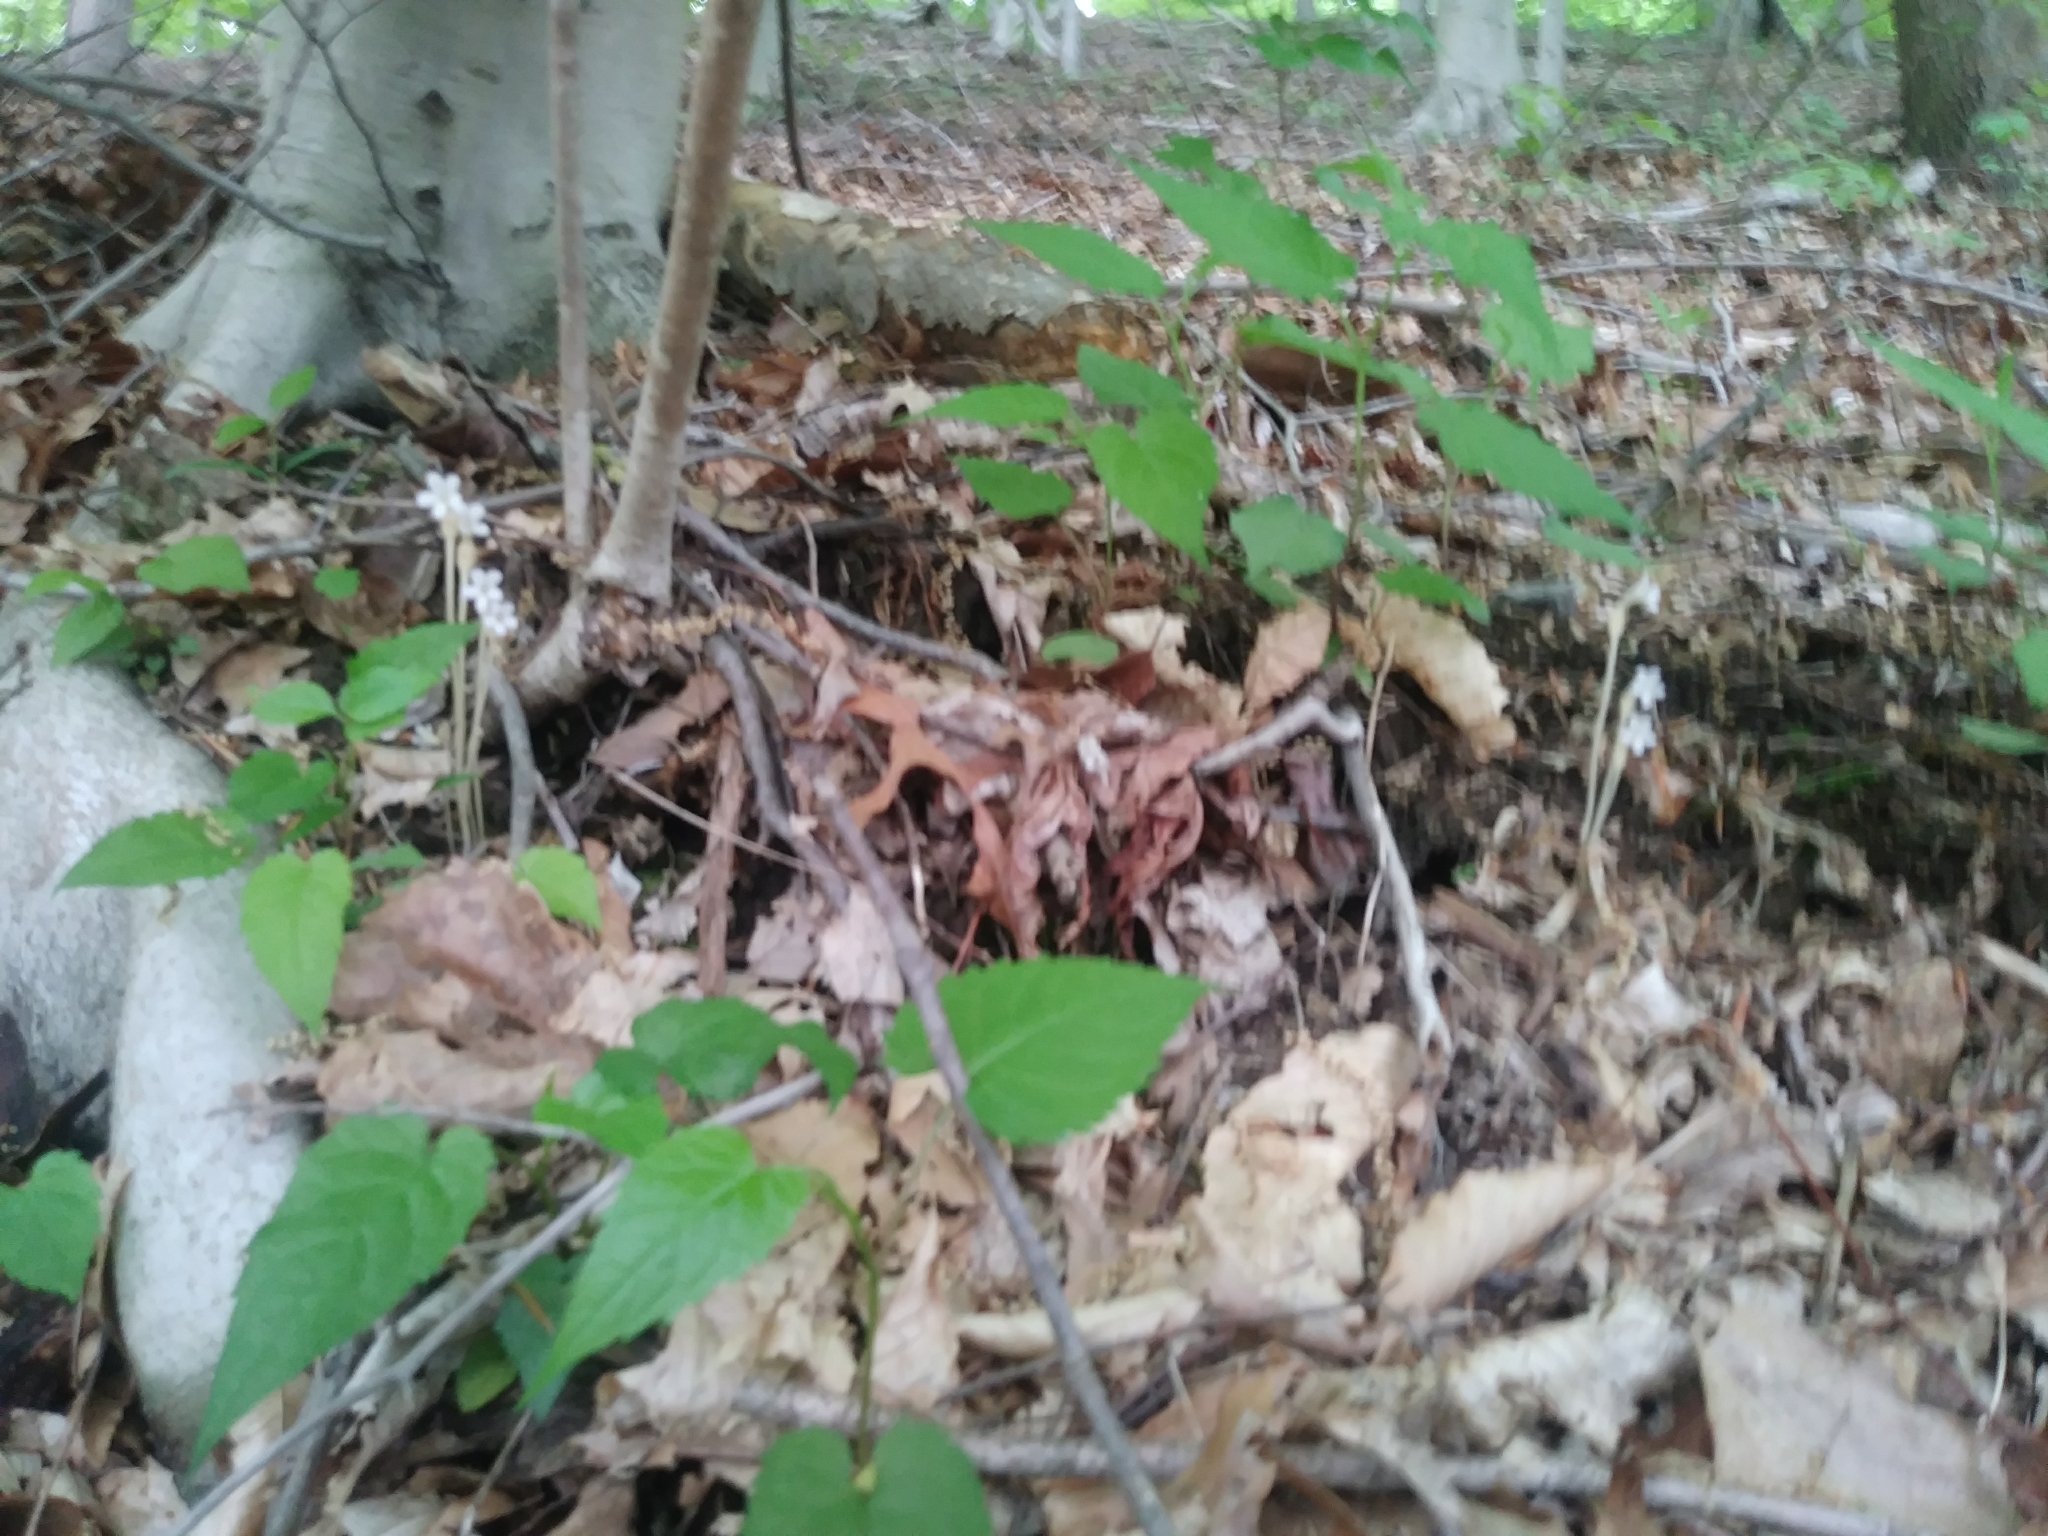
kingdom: Plantae
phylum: Tracheophyta
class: Magnoliopsida
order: Lamiales
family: Orobanchaceae
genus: Aphyllon
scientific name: Aphyllon uniflorum
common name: One-flowered broomrape
